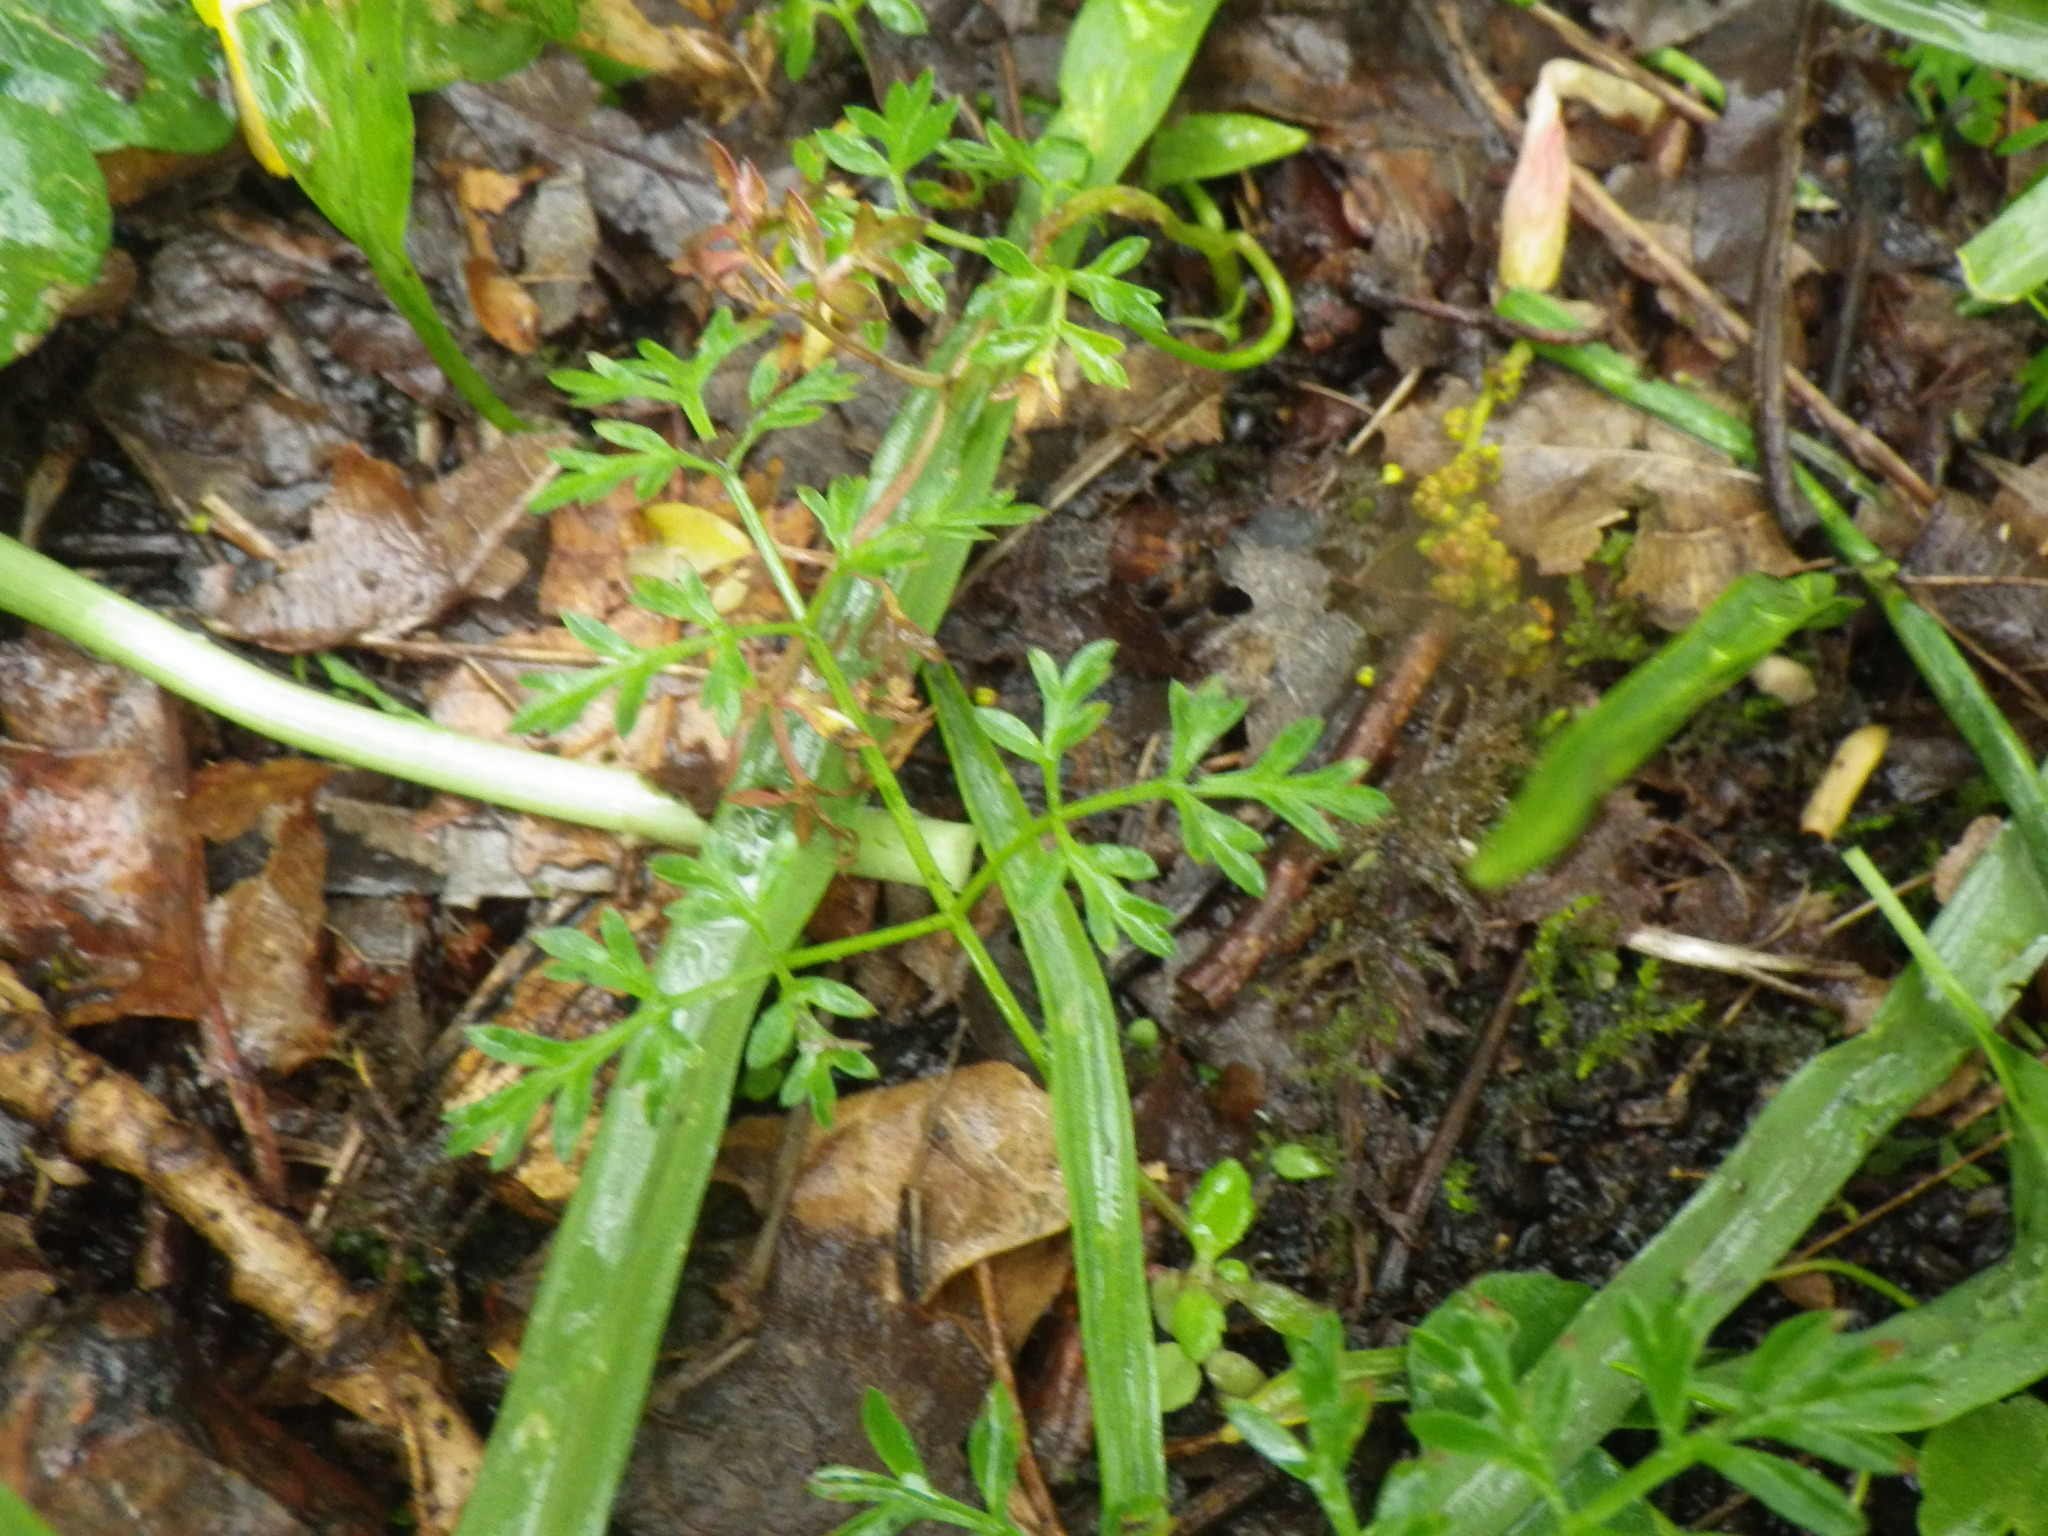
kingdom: Plantae
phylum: Tracheophyta
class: Magnoliopsida
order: Apiales
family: Apiaceae
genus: Conopodium
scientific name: Conopodium majus
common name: Pignut
